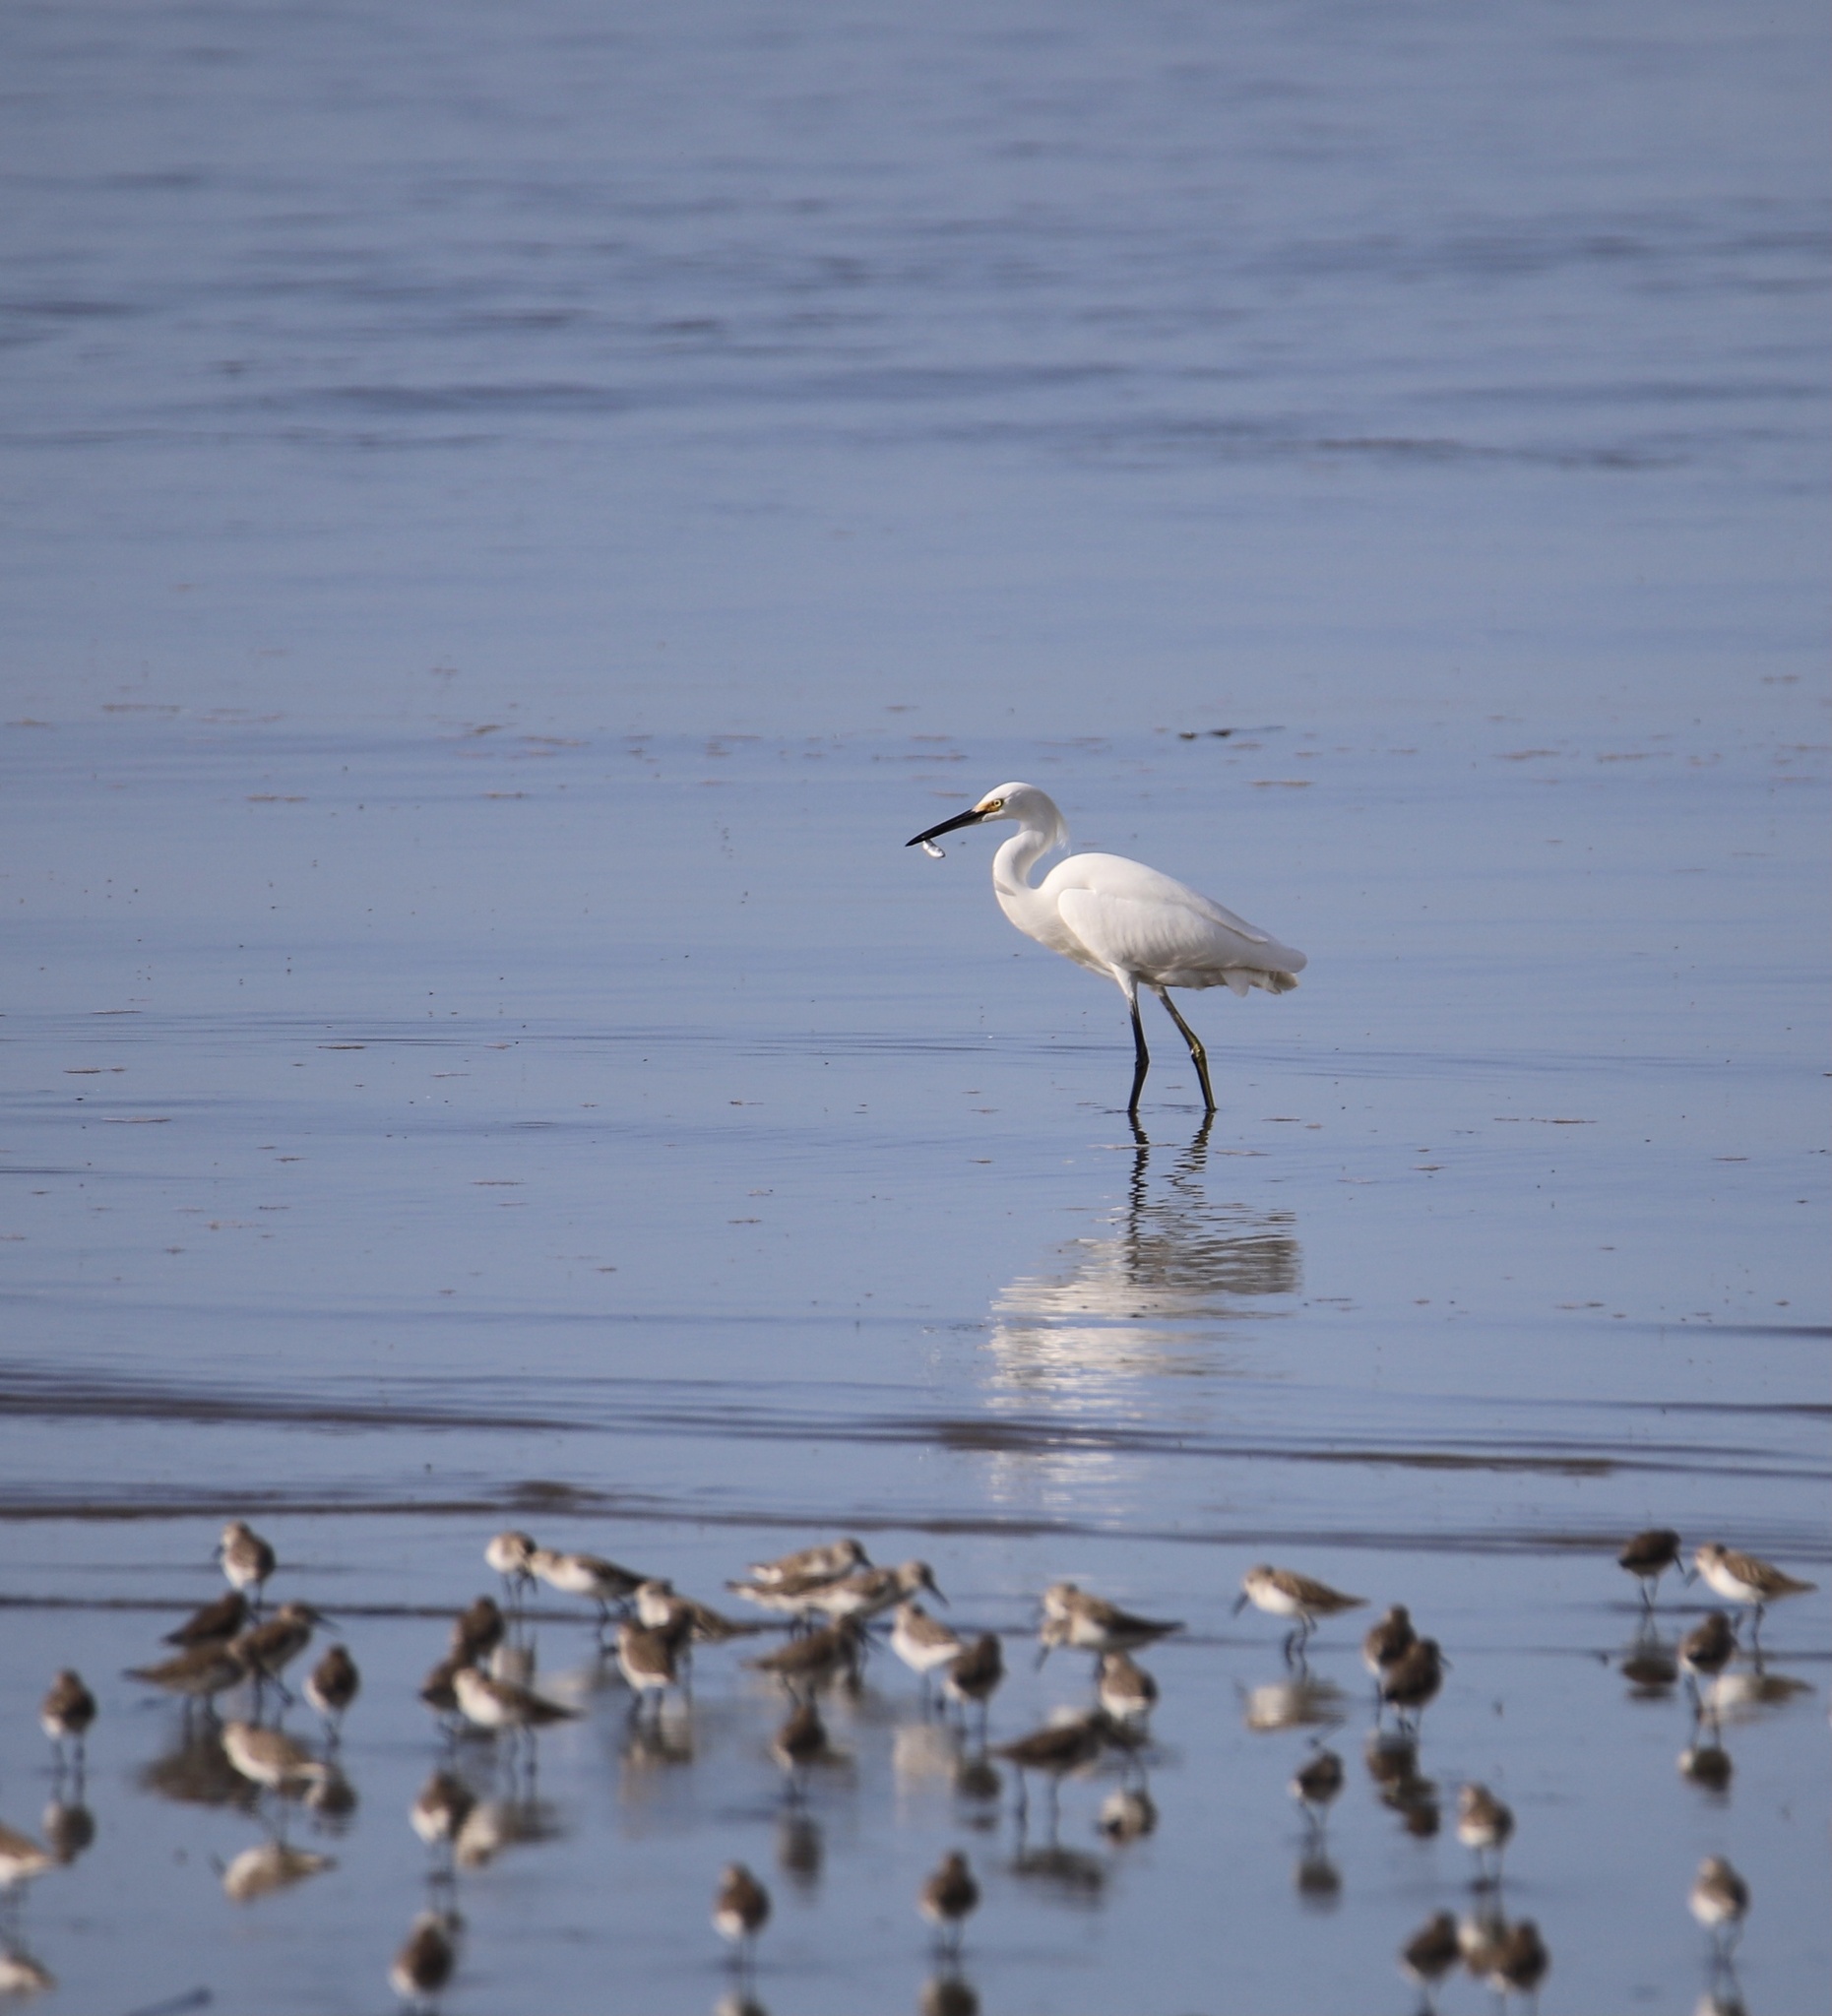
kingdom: Animalia
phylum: Chordata
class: Aves
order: Pelecaniformes
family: Ardeidae
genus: Egretta
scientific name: Egretta thula
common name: Snowy egret
